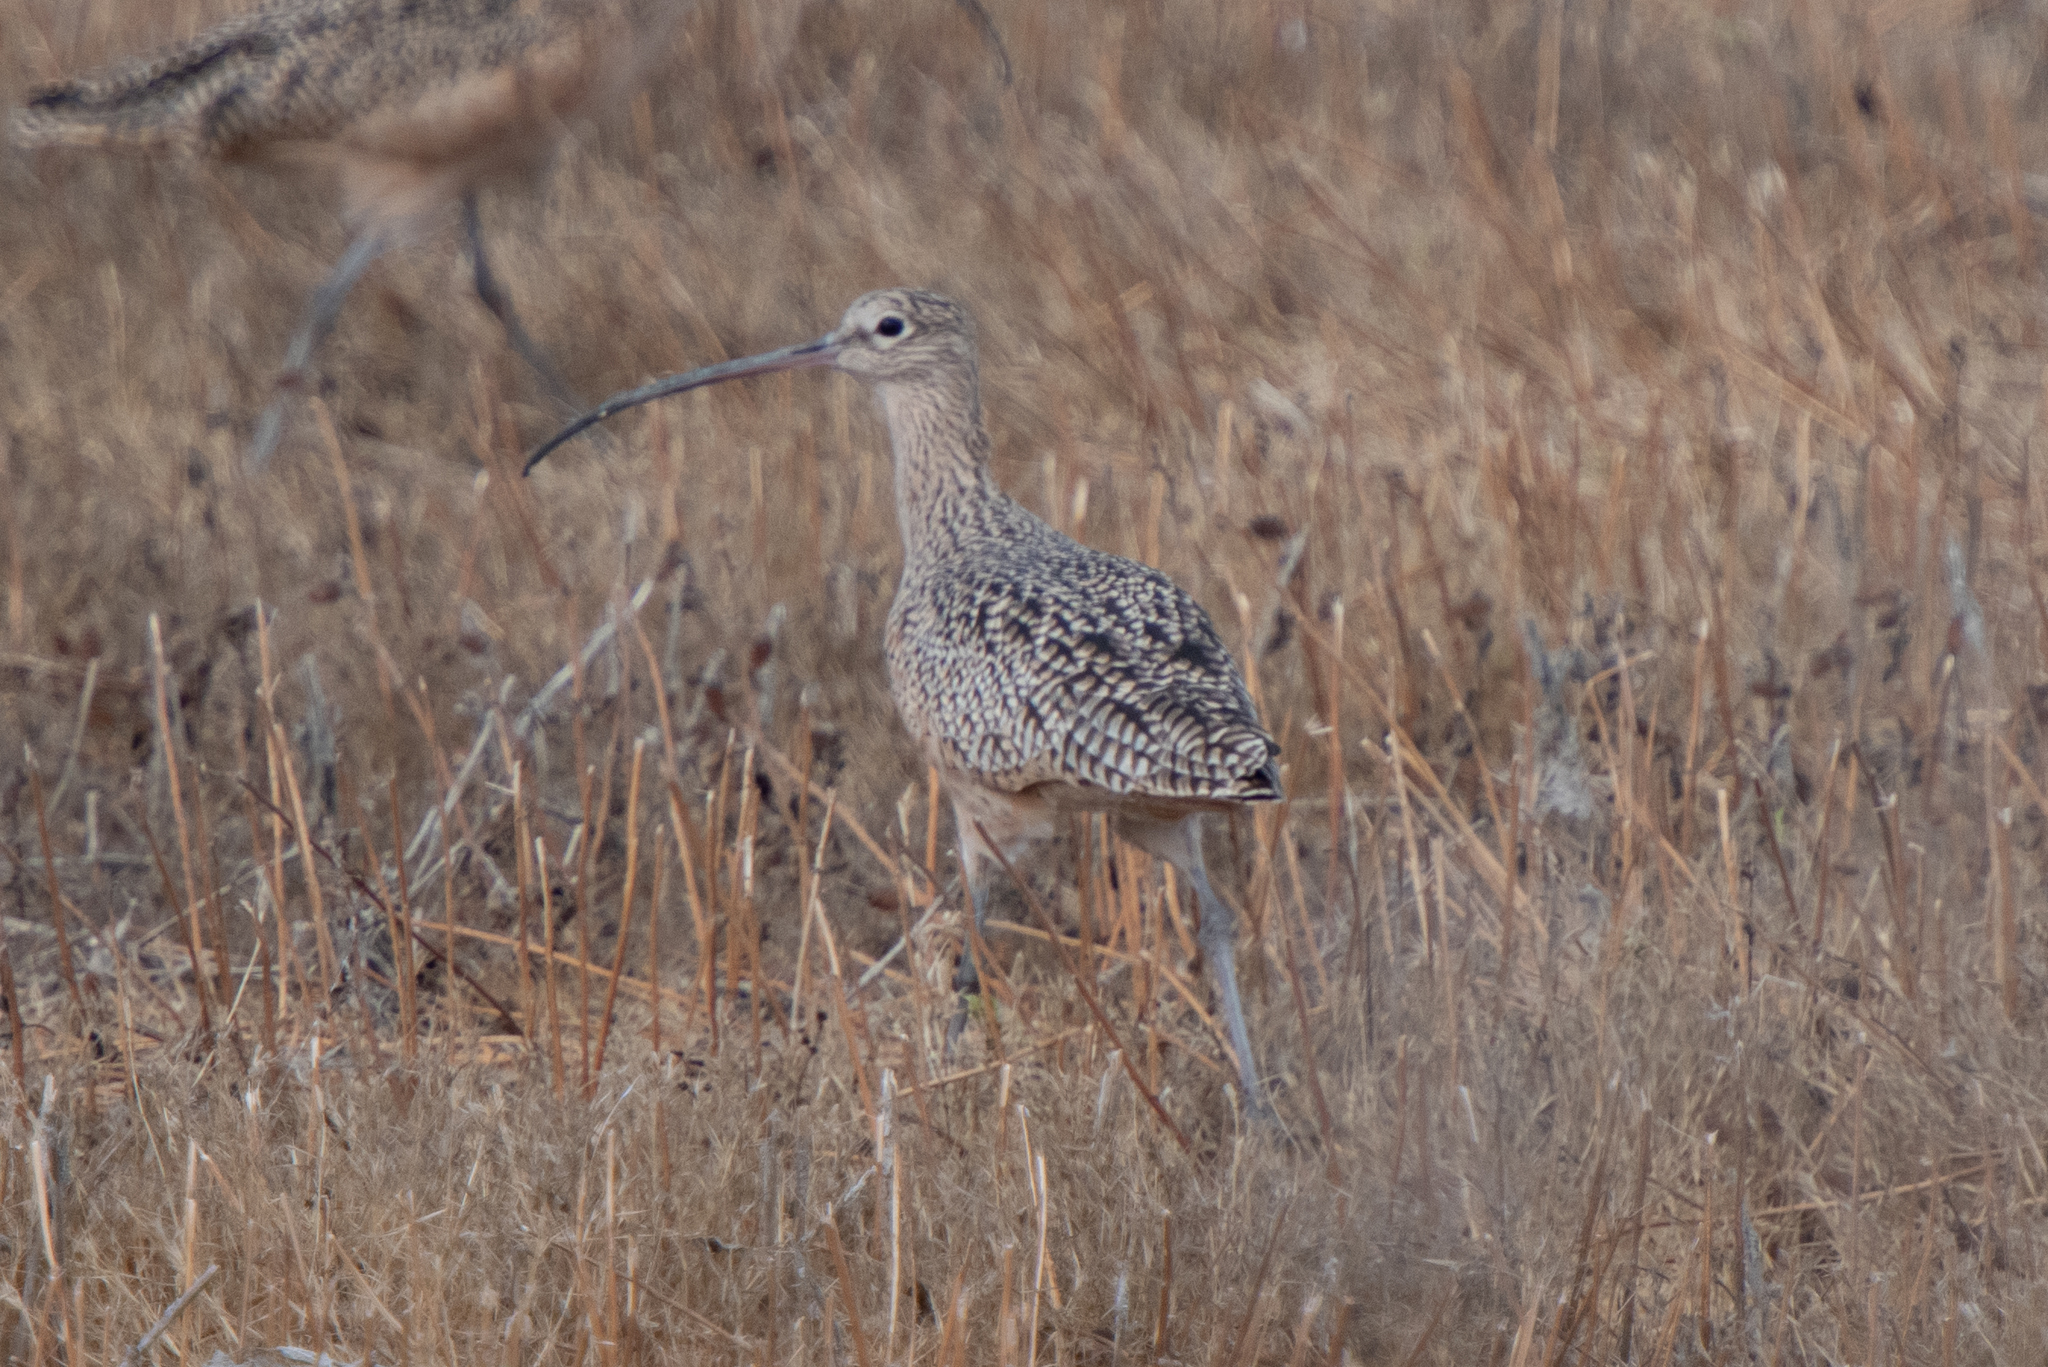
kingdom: Animalia
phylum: Chordata
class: Aves
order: Charadriiformes
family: Scolopacidae
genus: Numenius
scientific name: Numenius americanus
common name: Long-billed curlew
